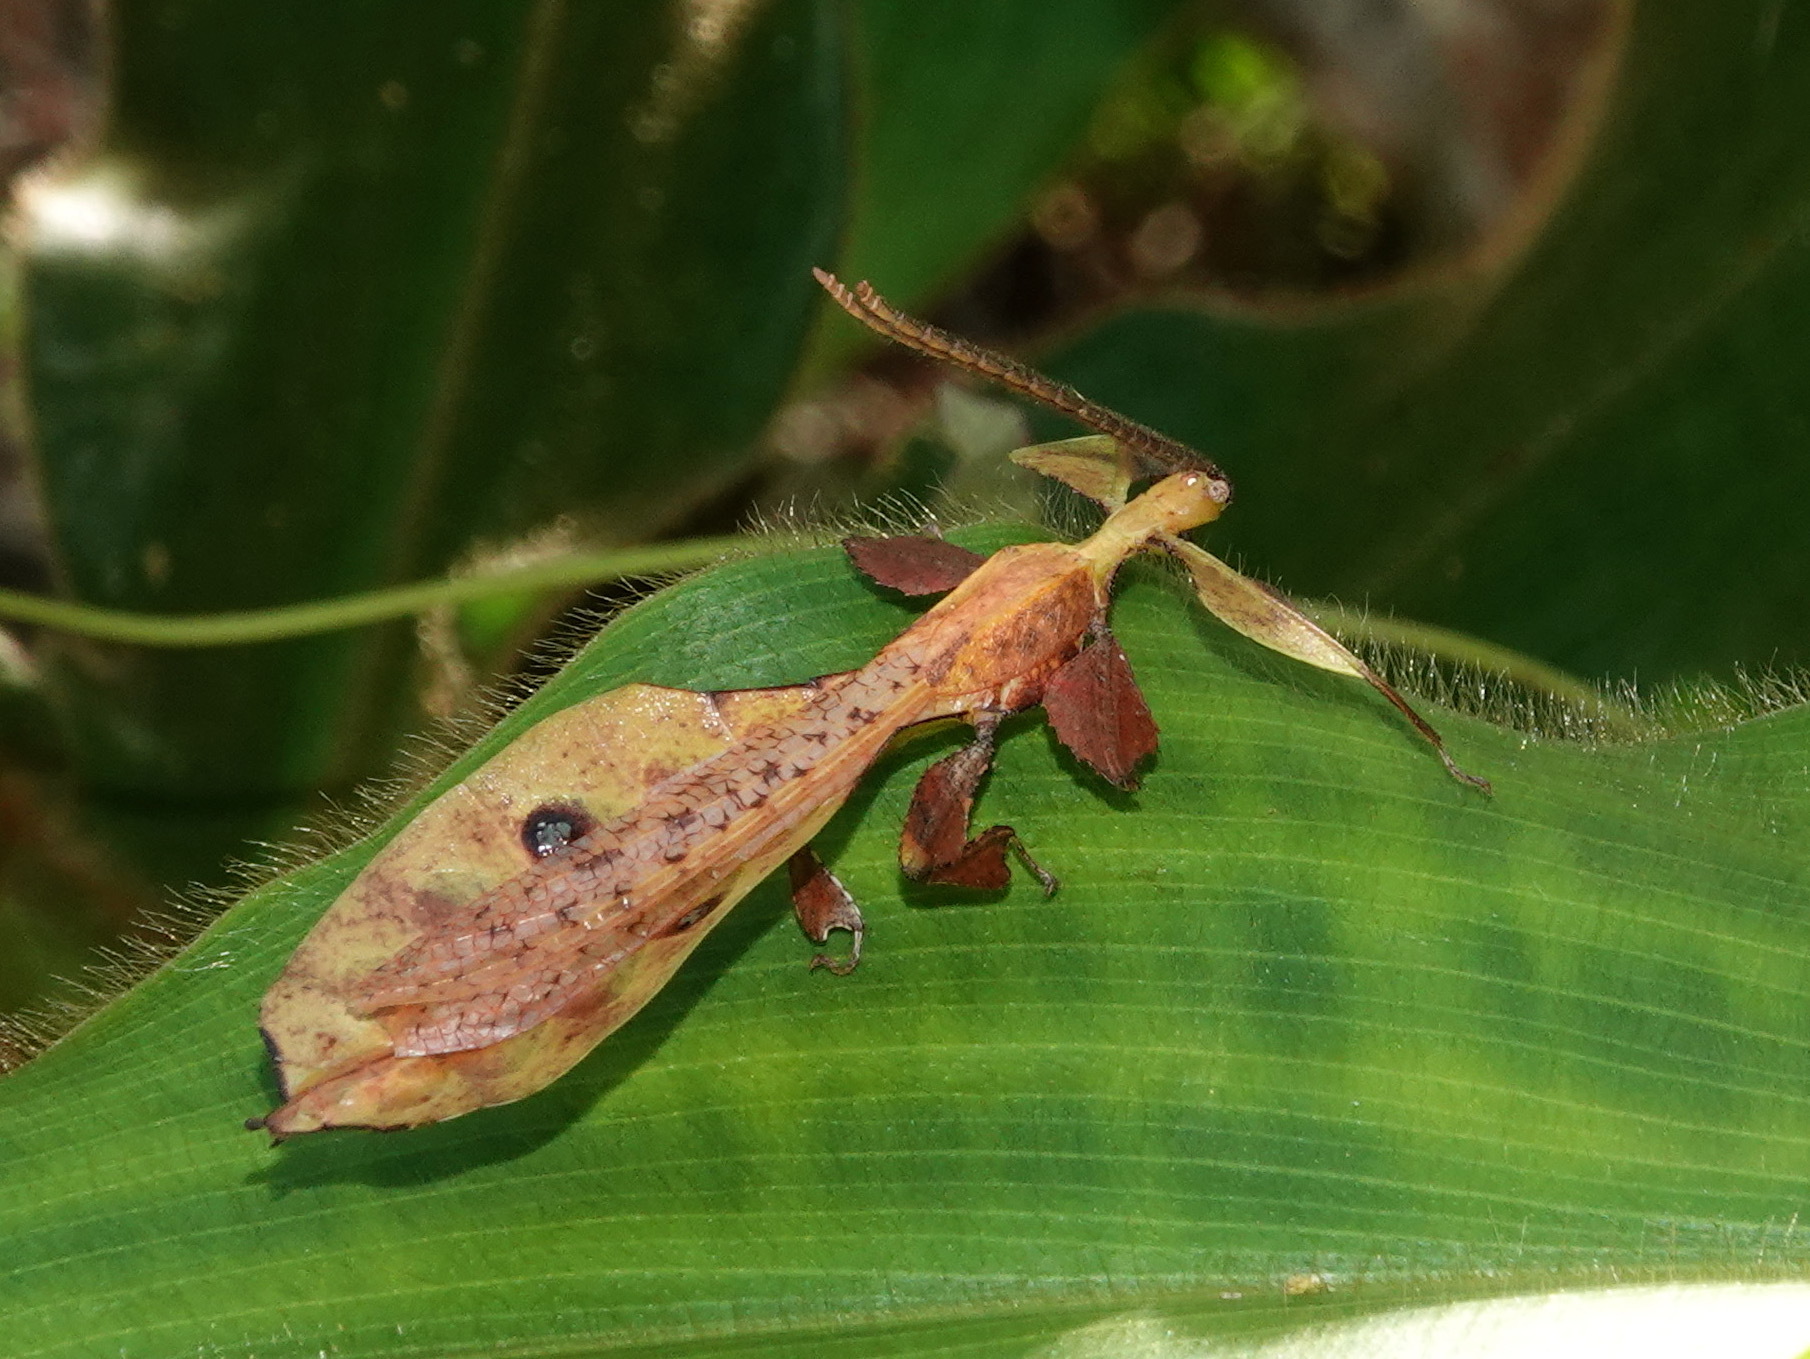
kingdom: Animalia
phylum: Arthropoda
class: Insecta
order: Phasmida
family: Phylliidae
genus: Pulchriphyllium
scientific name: Pulchriphyllium fredkugani
